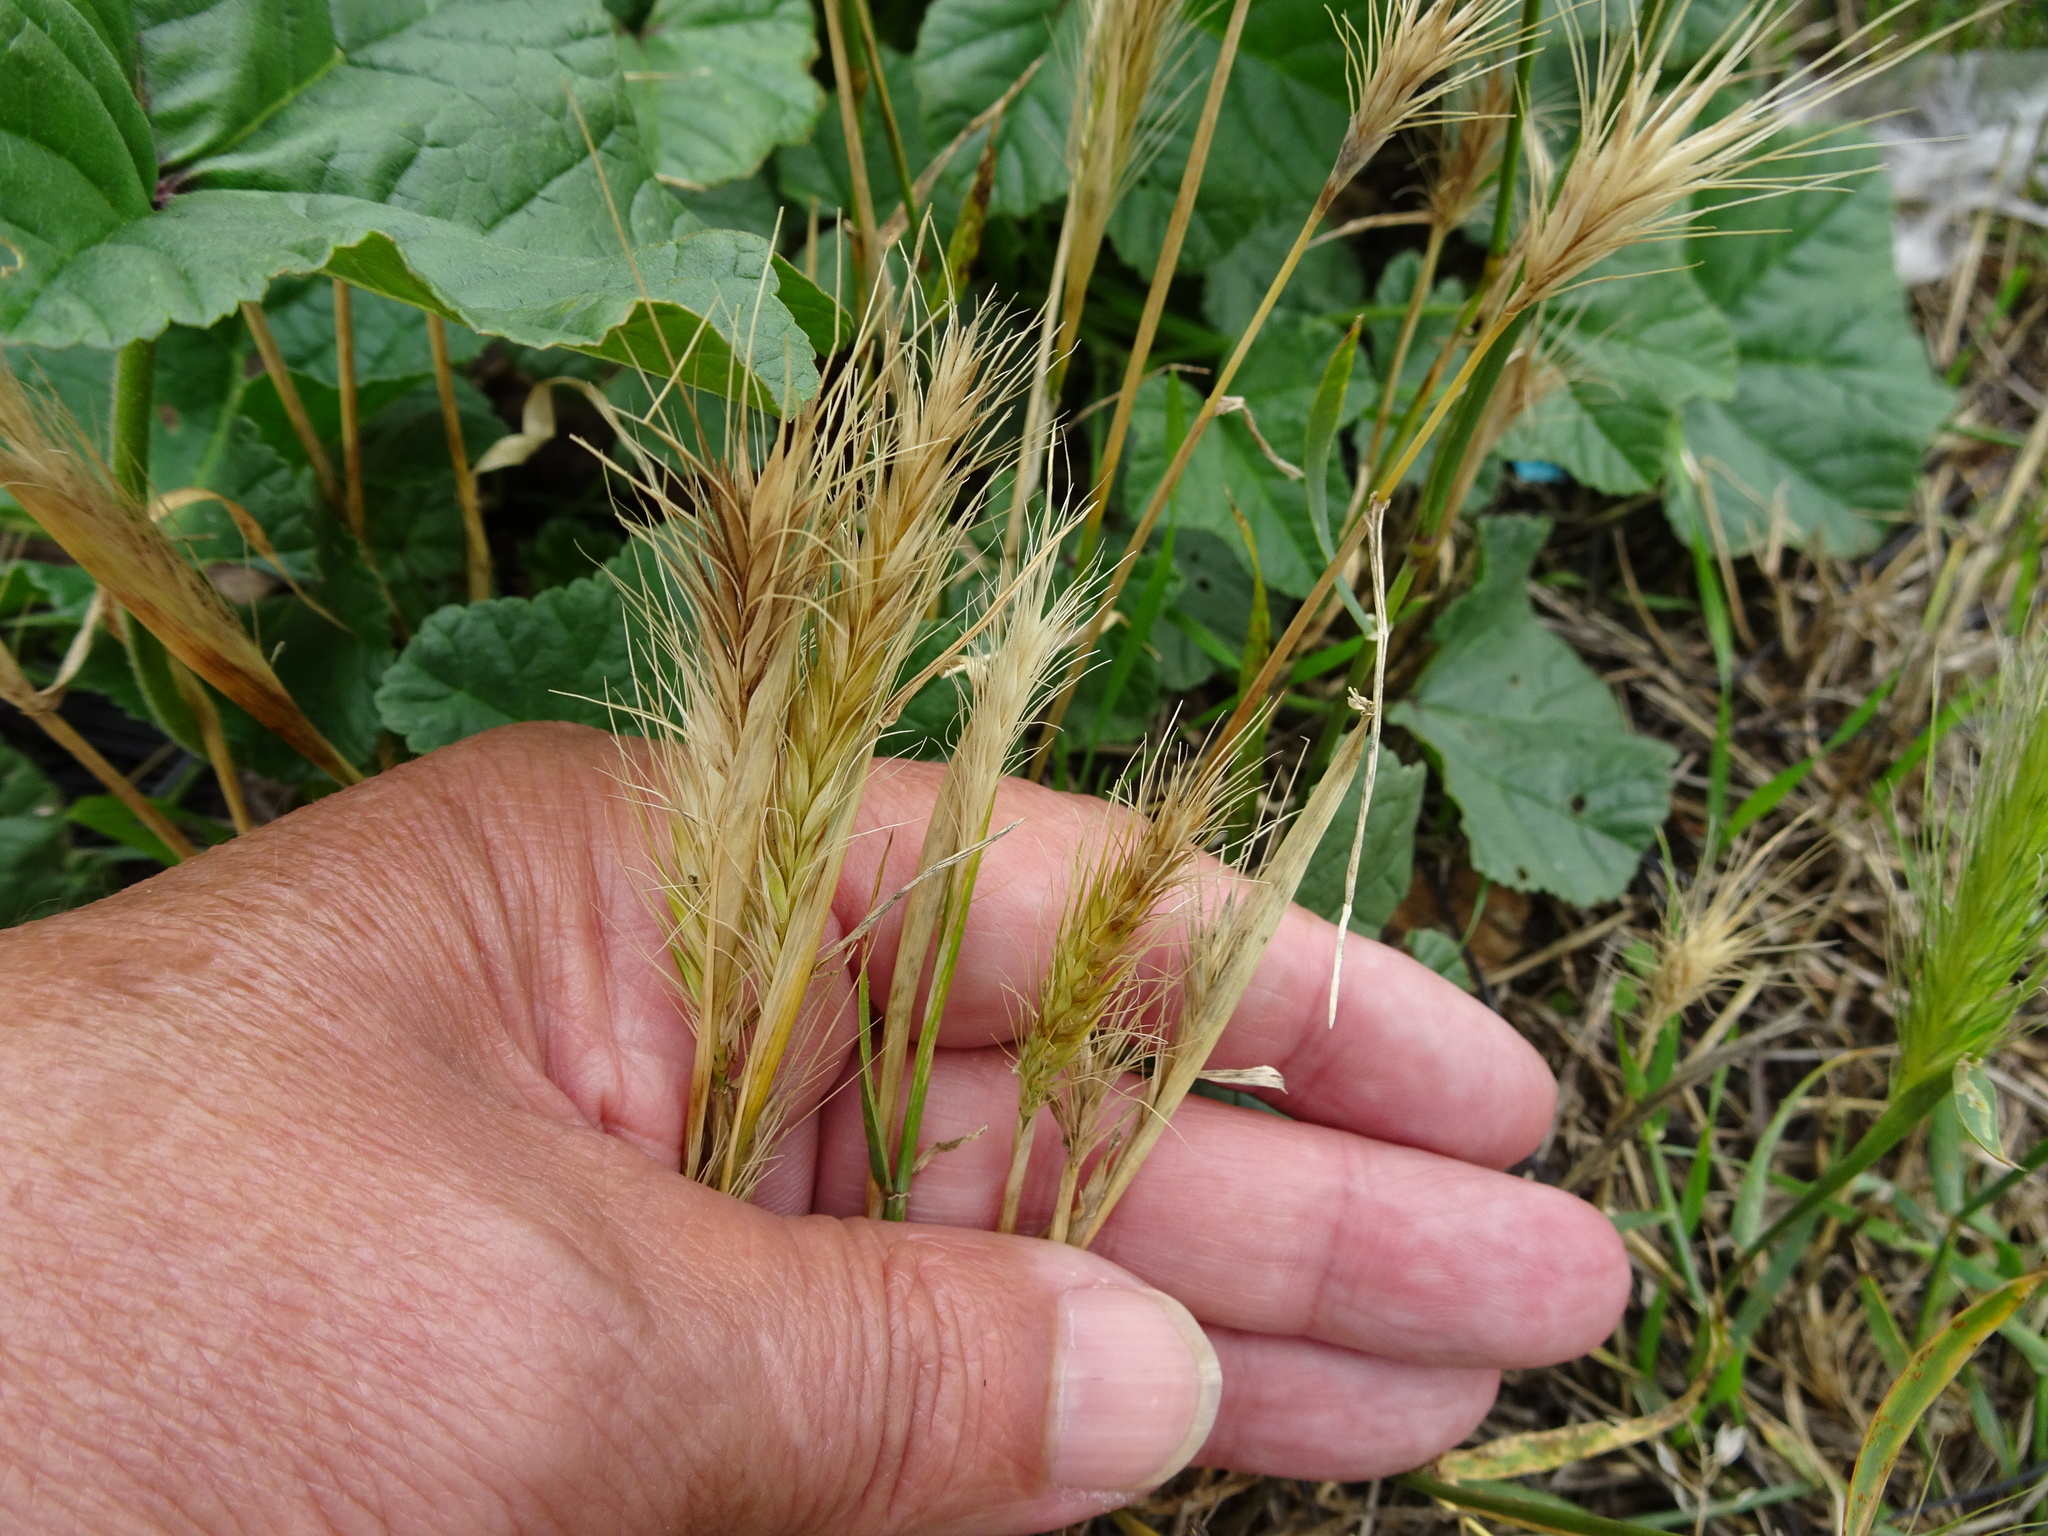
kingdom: Plantae
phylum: Tracheophyta
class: Liliopsida
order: Poales
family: Poaceae
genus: Hordeum
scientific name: Hordeum murinum
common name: Wall barley
